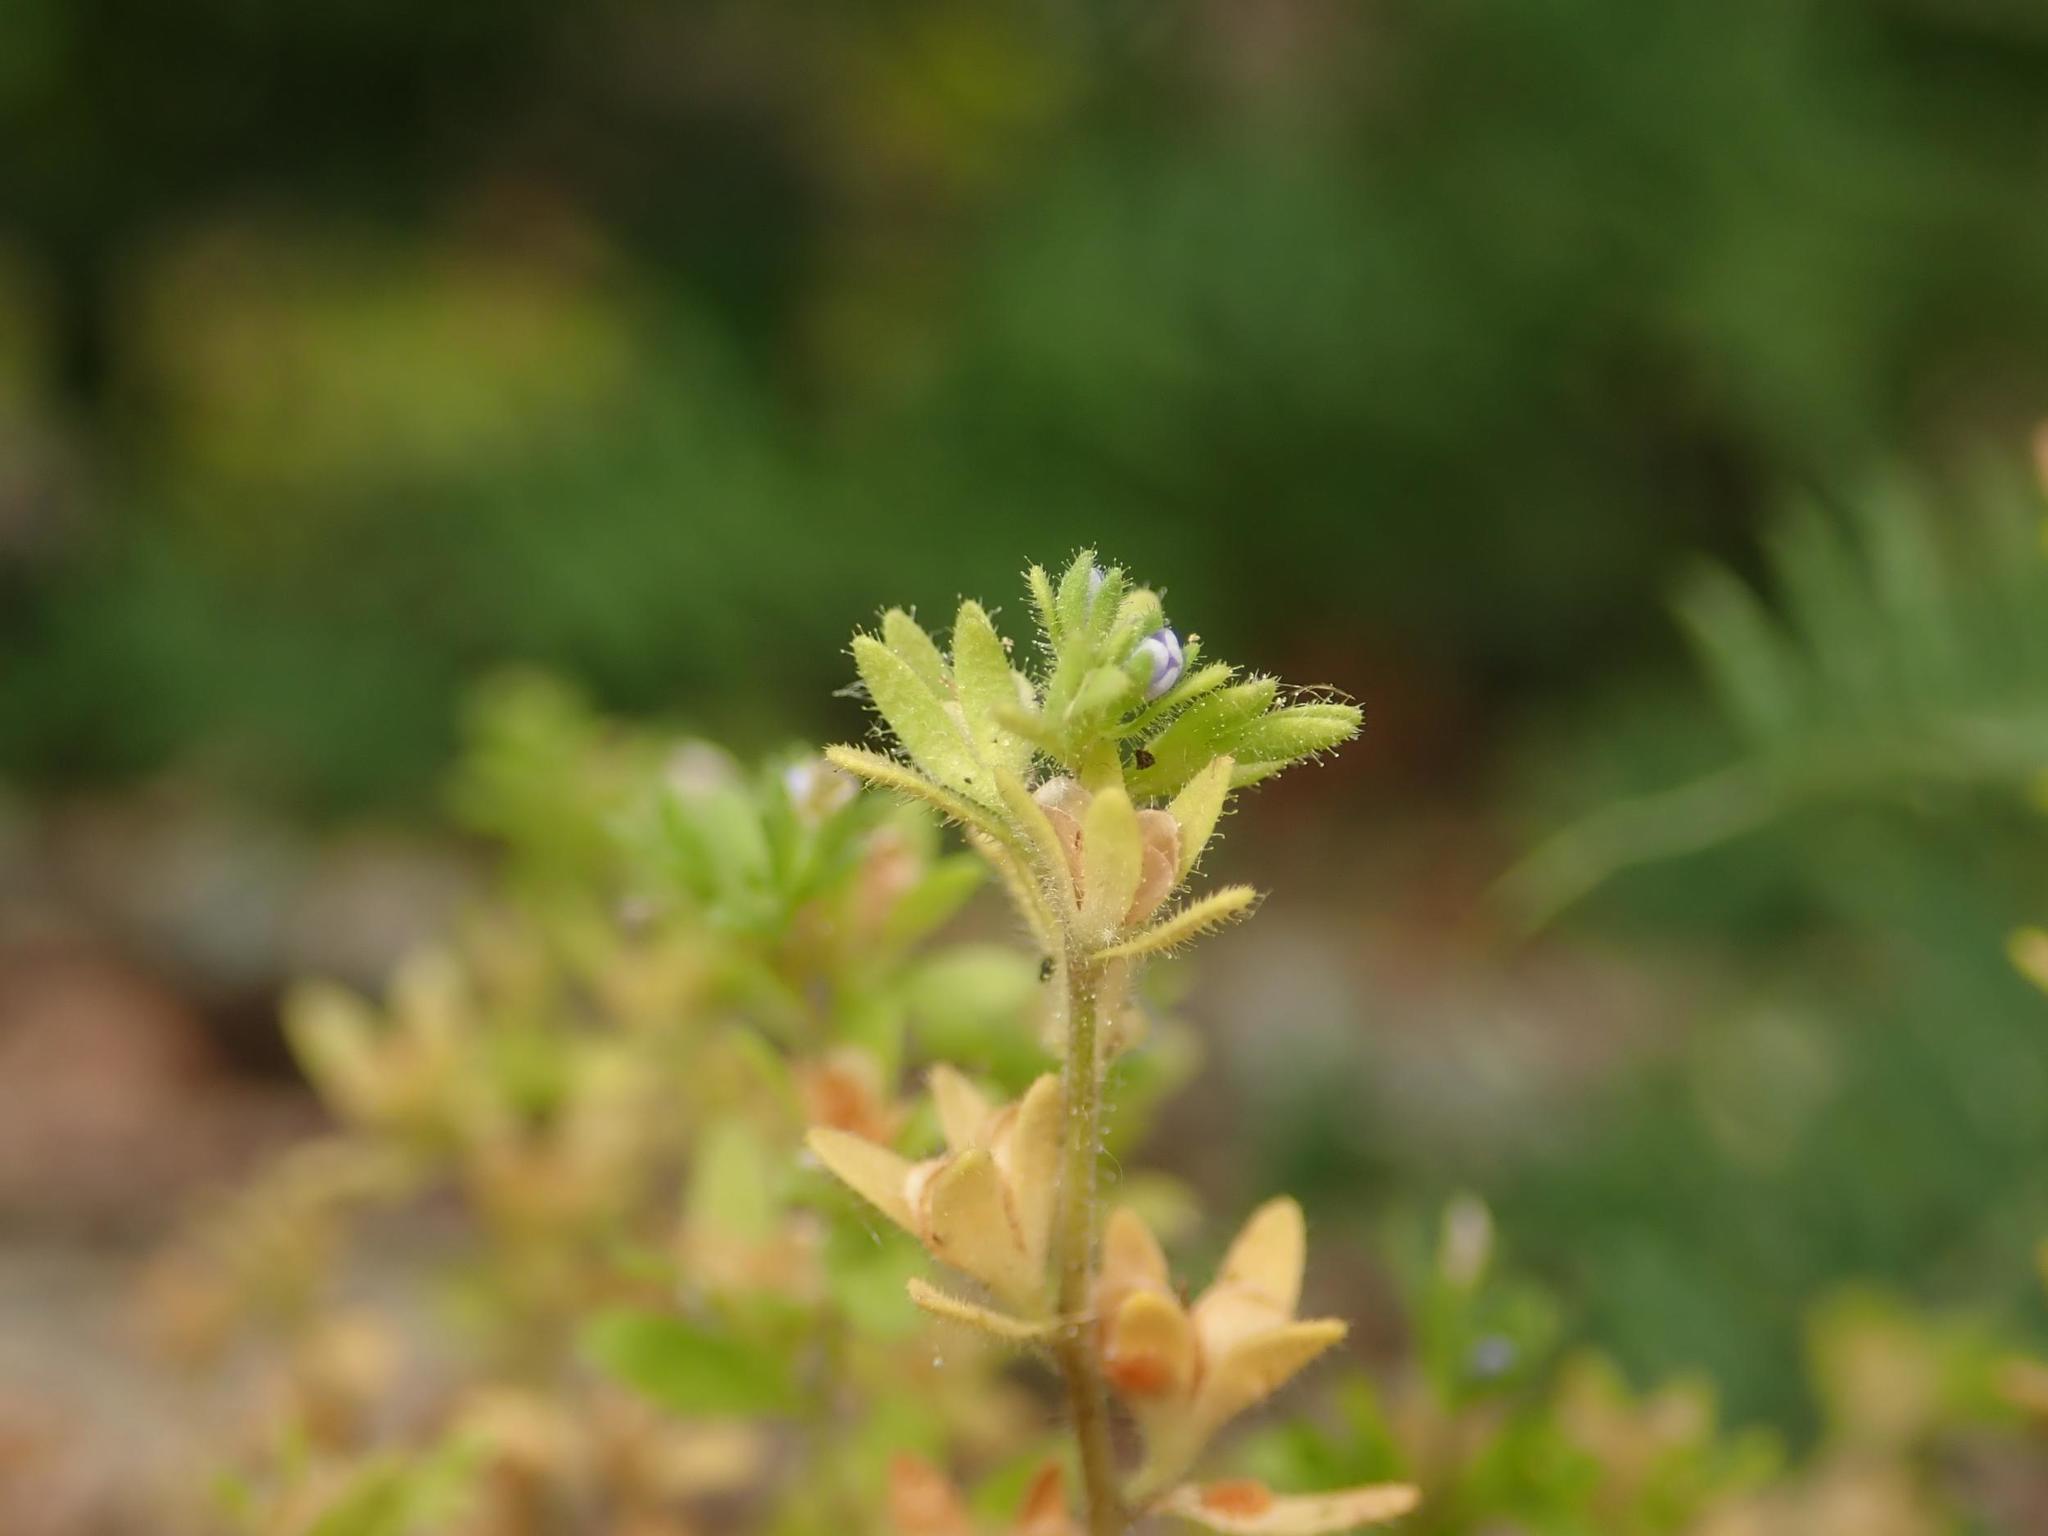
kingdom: Plantae
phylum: Tracheophyta
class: Magnoliopsida
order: Lamiales
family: Plantaginaceae
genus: Veronica
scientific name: Veronica arvensis
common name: Corn speedwell
